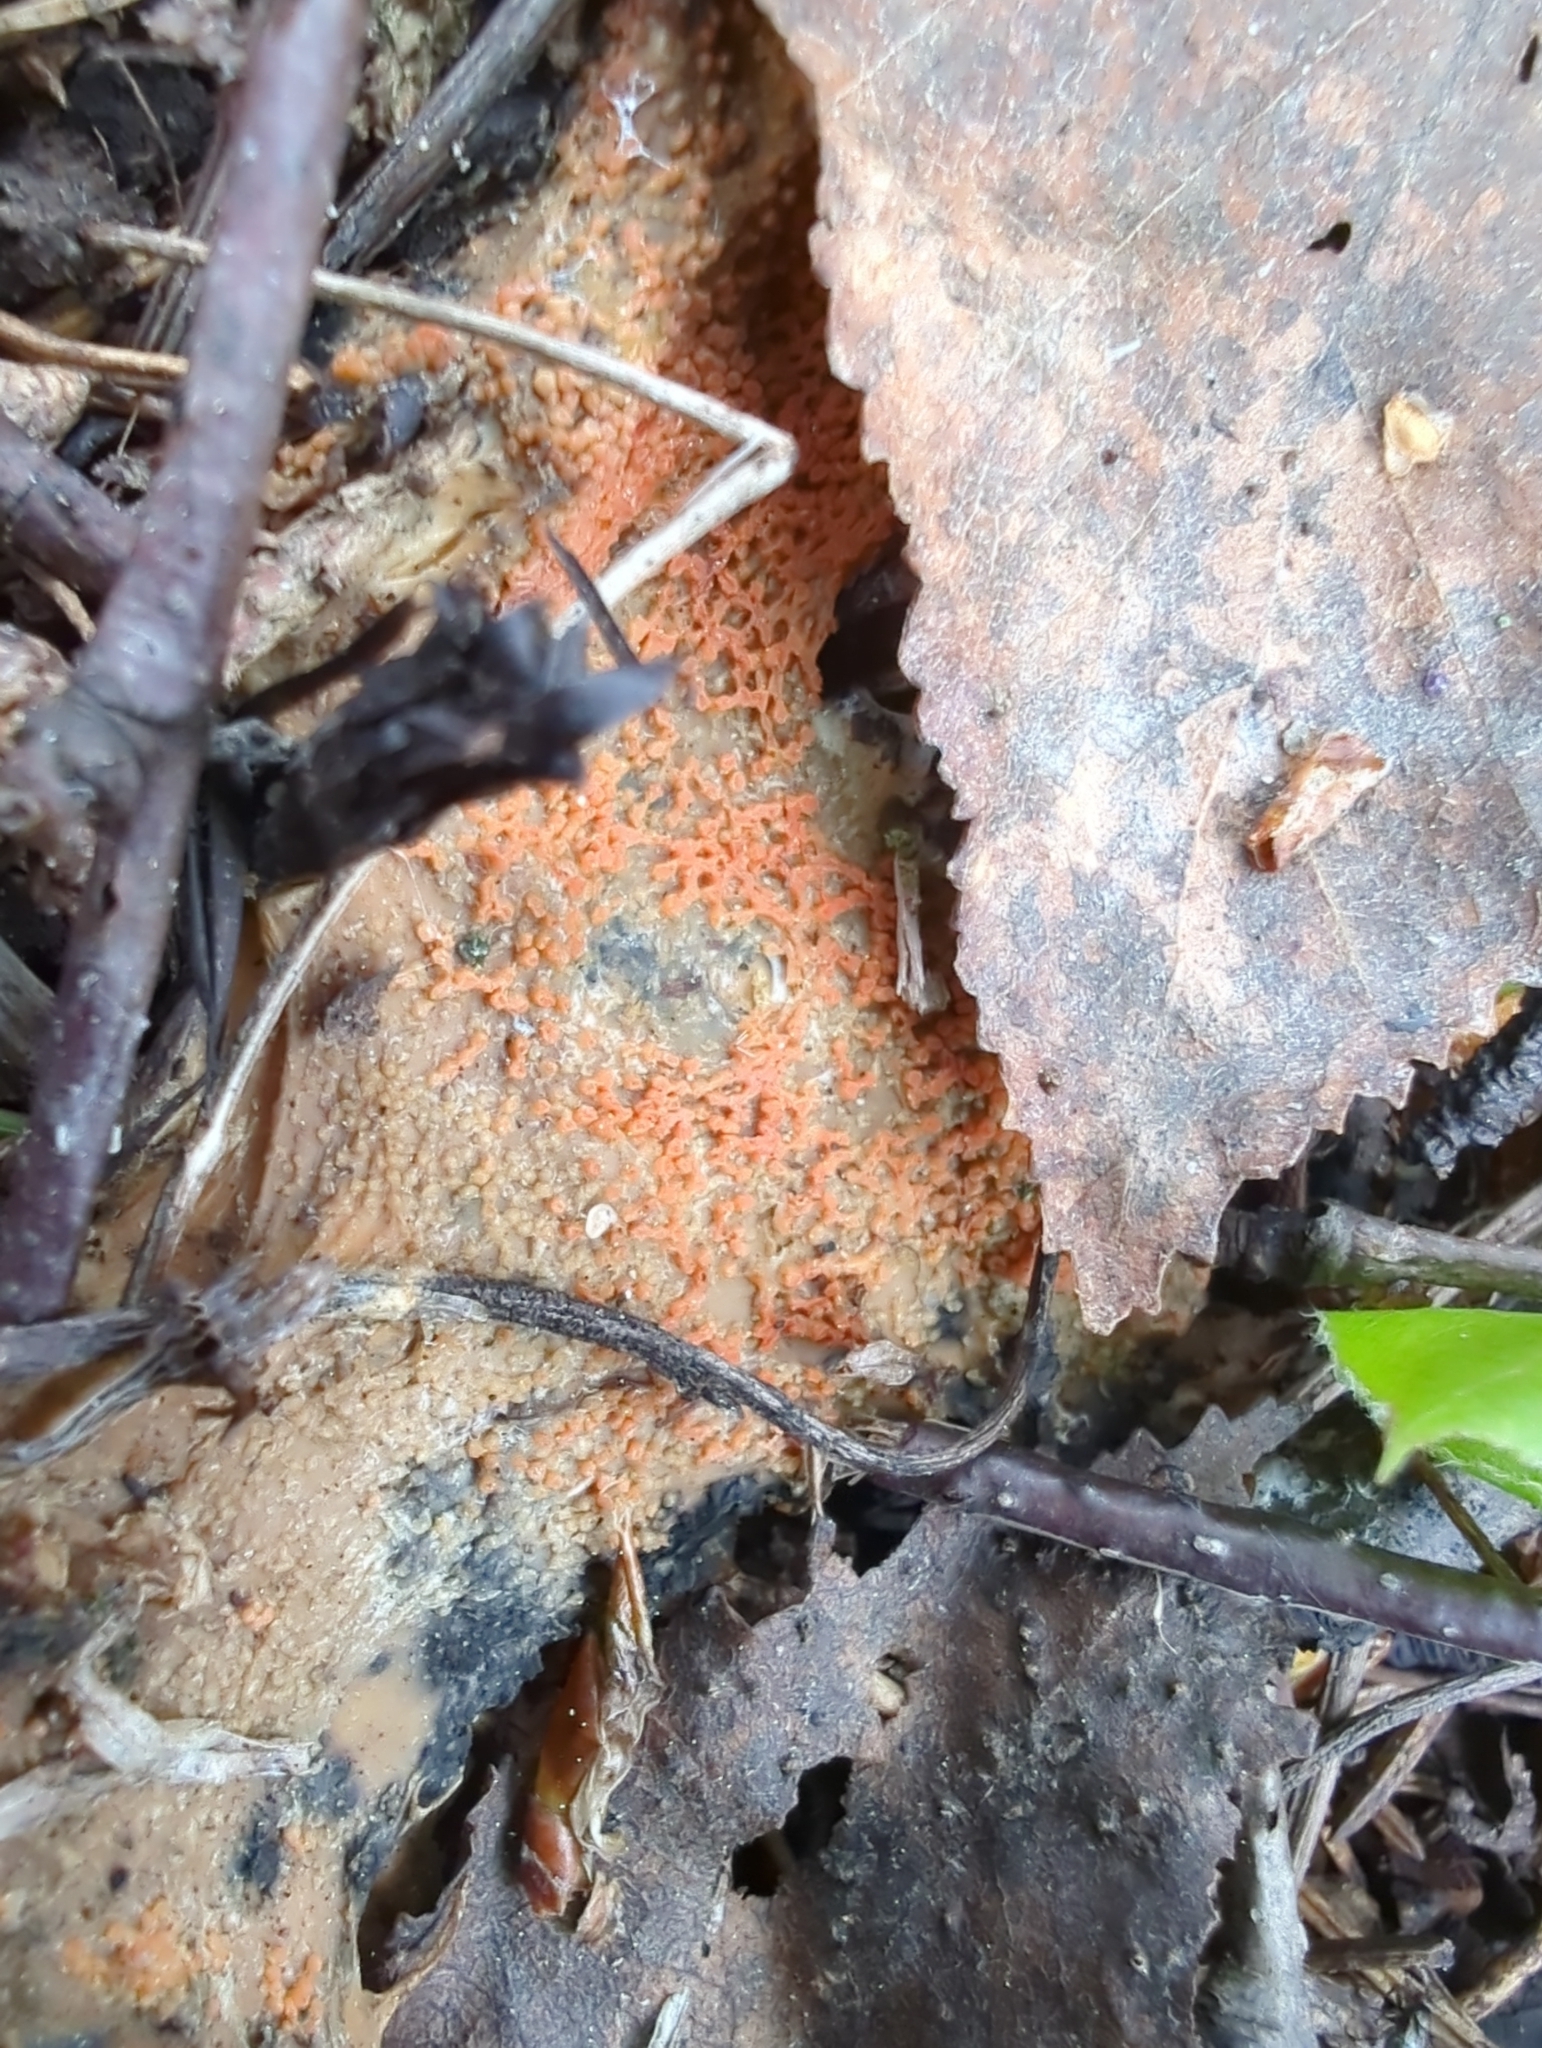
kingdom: Fungi
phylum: Ascomycota
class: Pezizomycetes
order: Pezizales
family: Pyronemataceae
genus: Byssonectria
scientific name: Byssonectria terrestris
